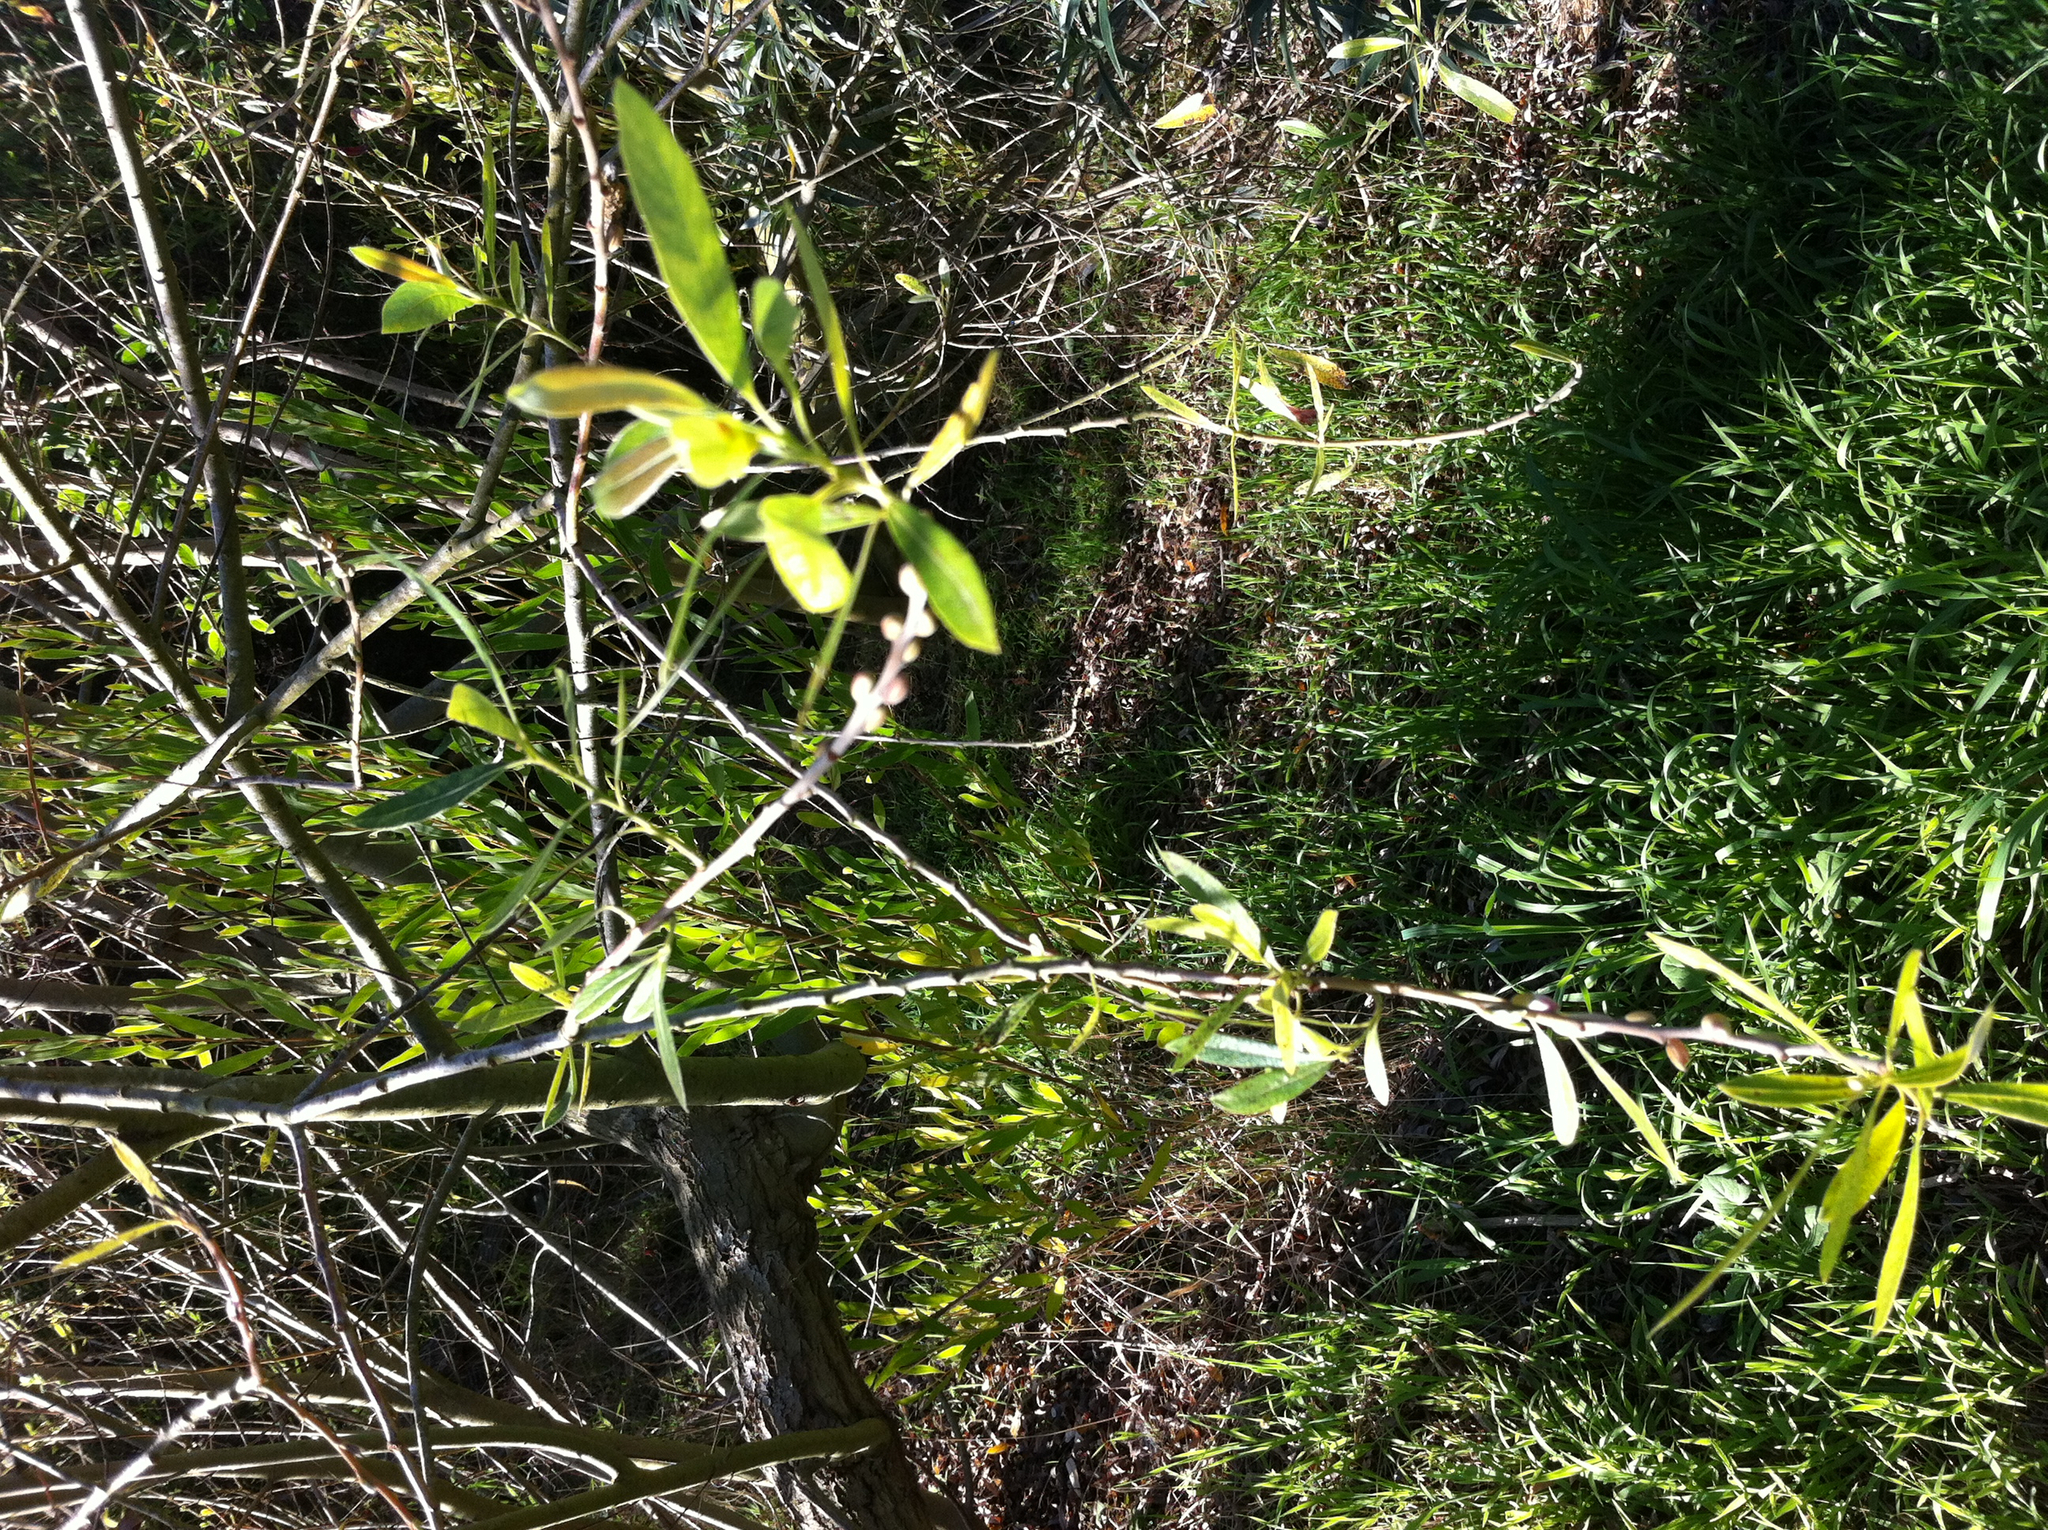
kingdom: Plantae
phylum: Tracheophyta
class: Magnoliopsida
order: Malpighiales
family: Salicaceae
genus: Salix
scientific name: Salix lasiolepis
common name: Arroyo willow
